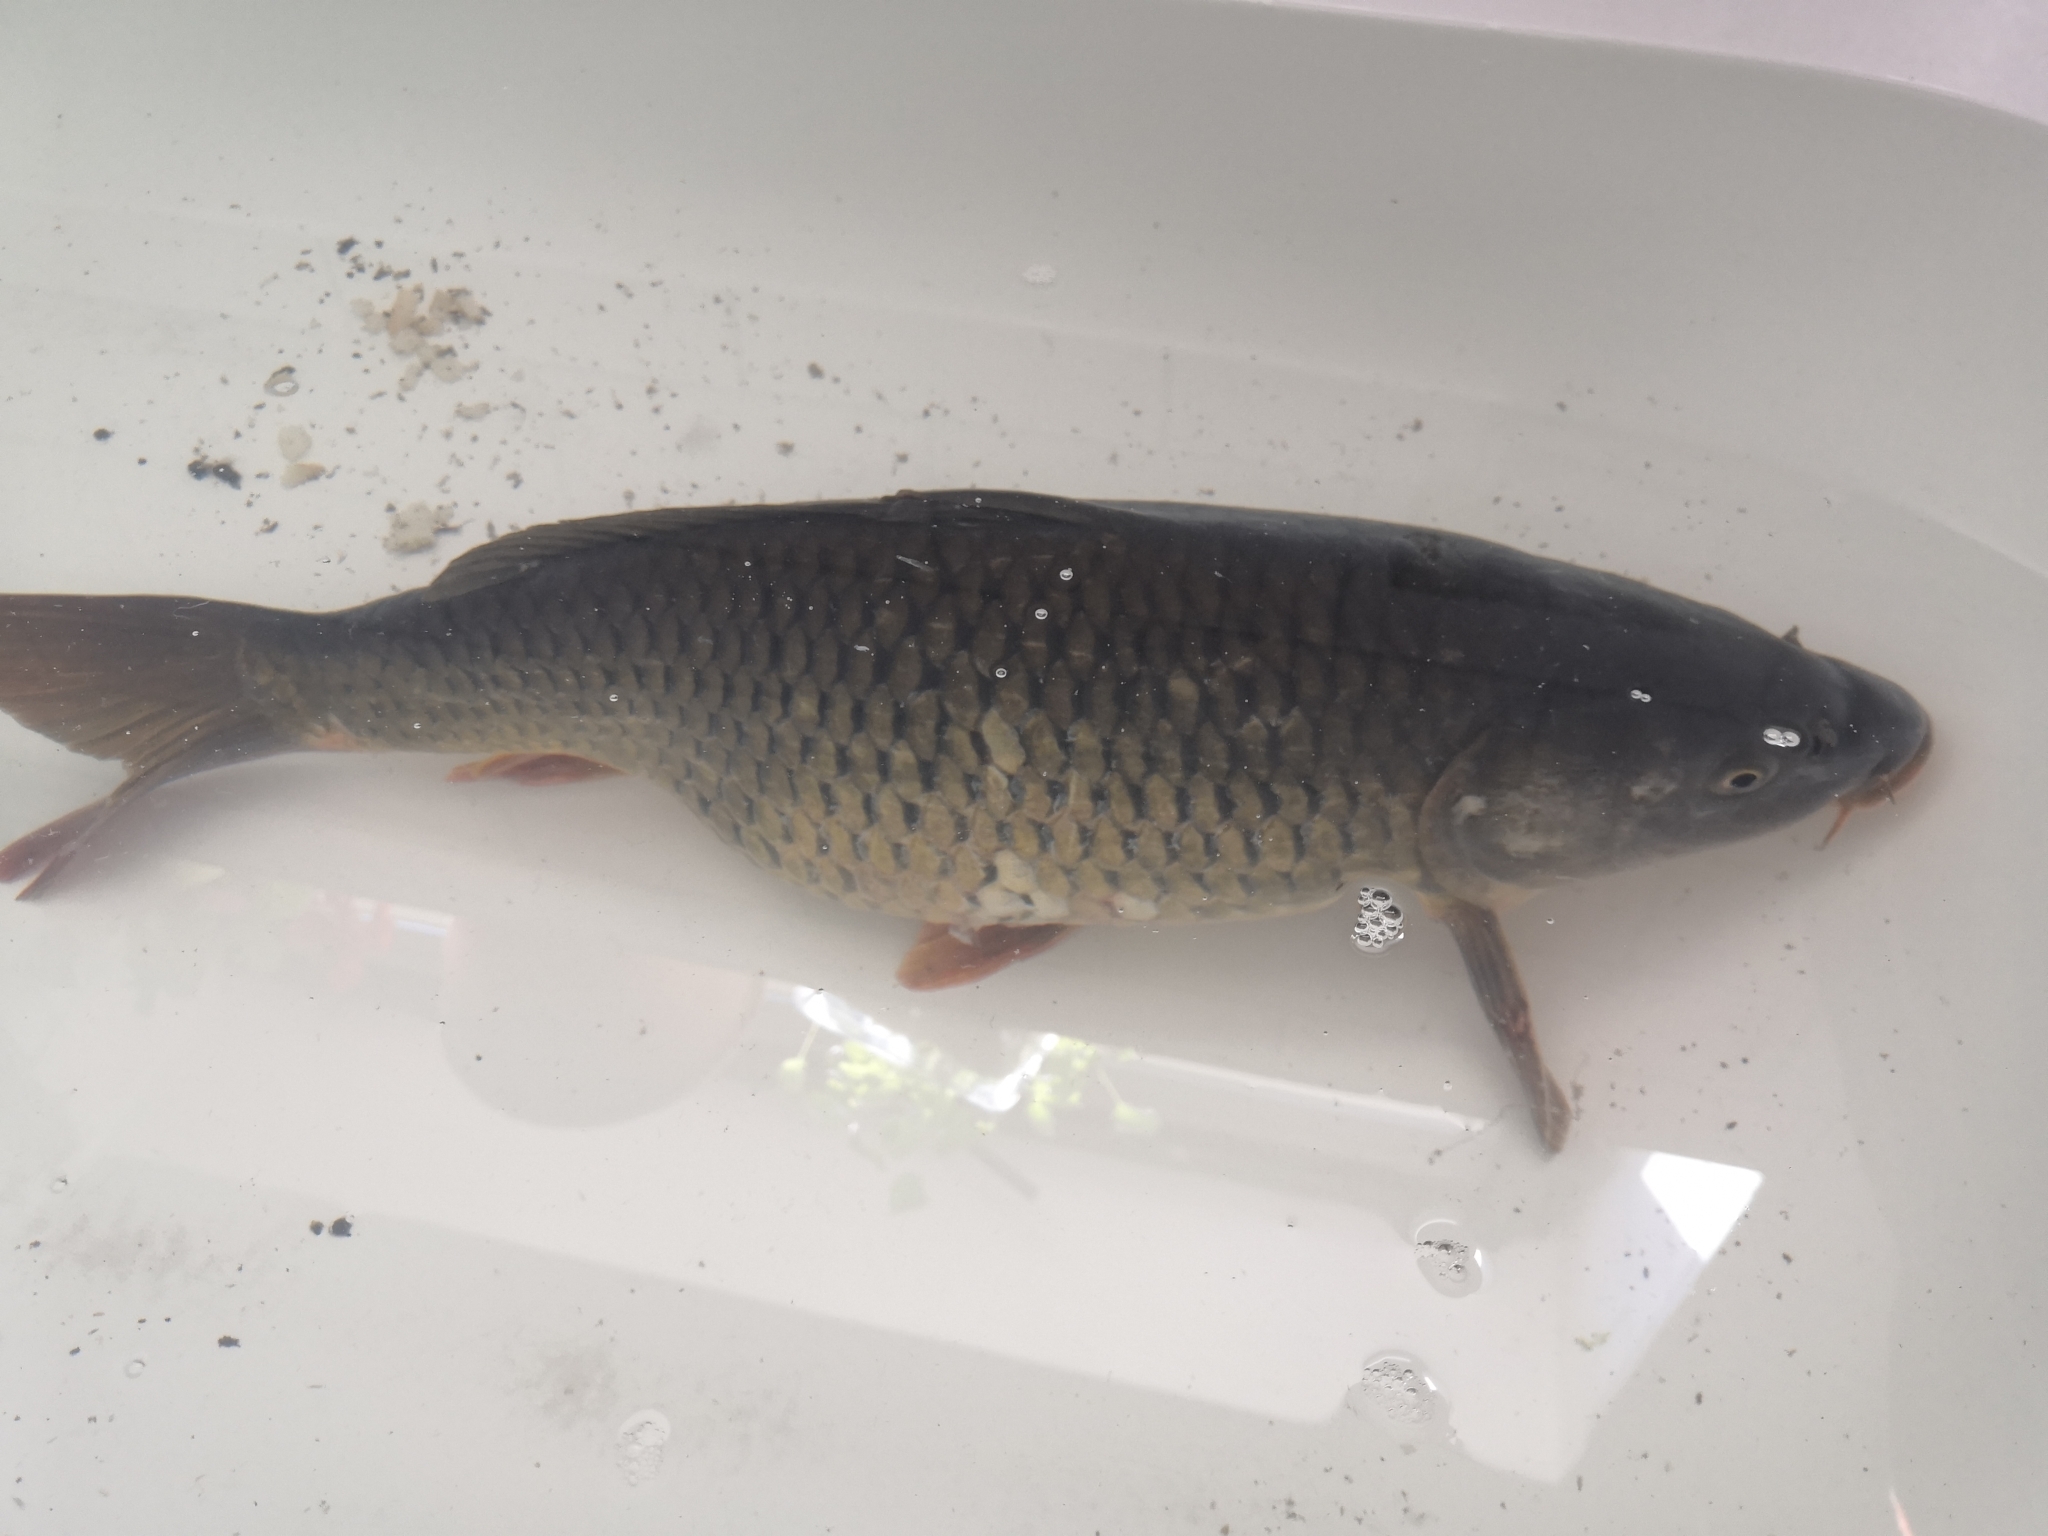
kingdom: Animalia
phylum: Chordata
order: Cypriniformes
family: Cyprinidae
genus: Cyprinus
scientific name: Cyprinus carpio
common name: Common carp
